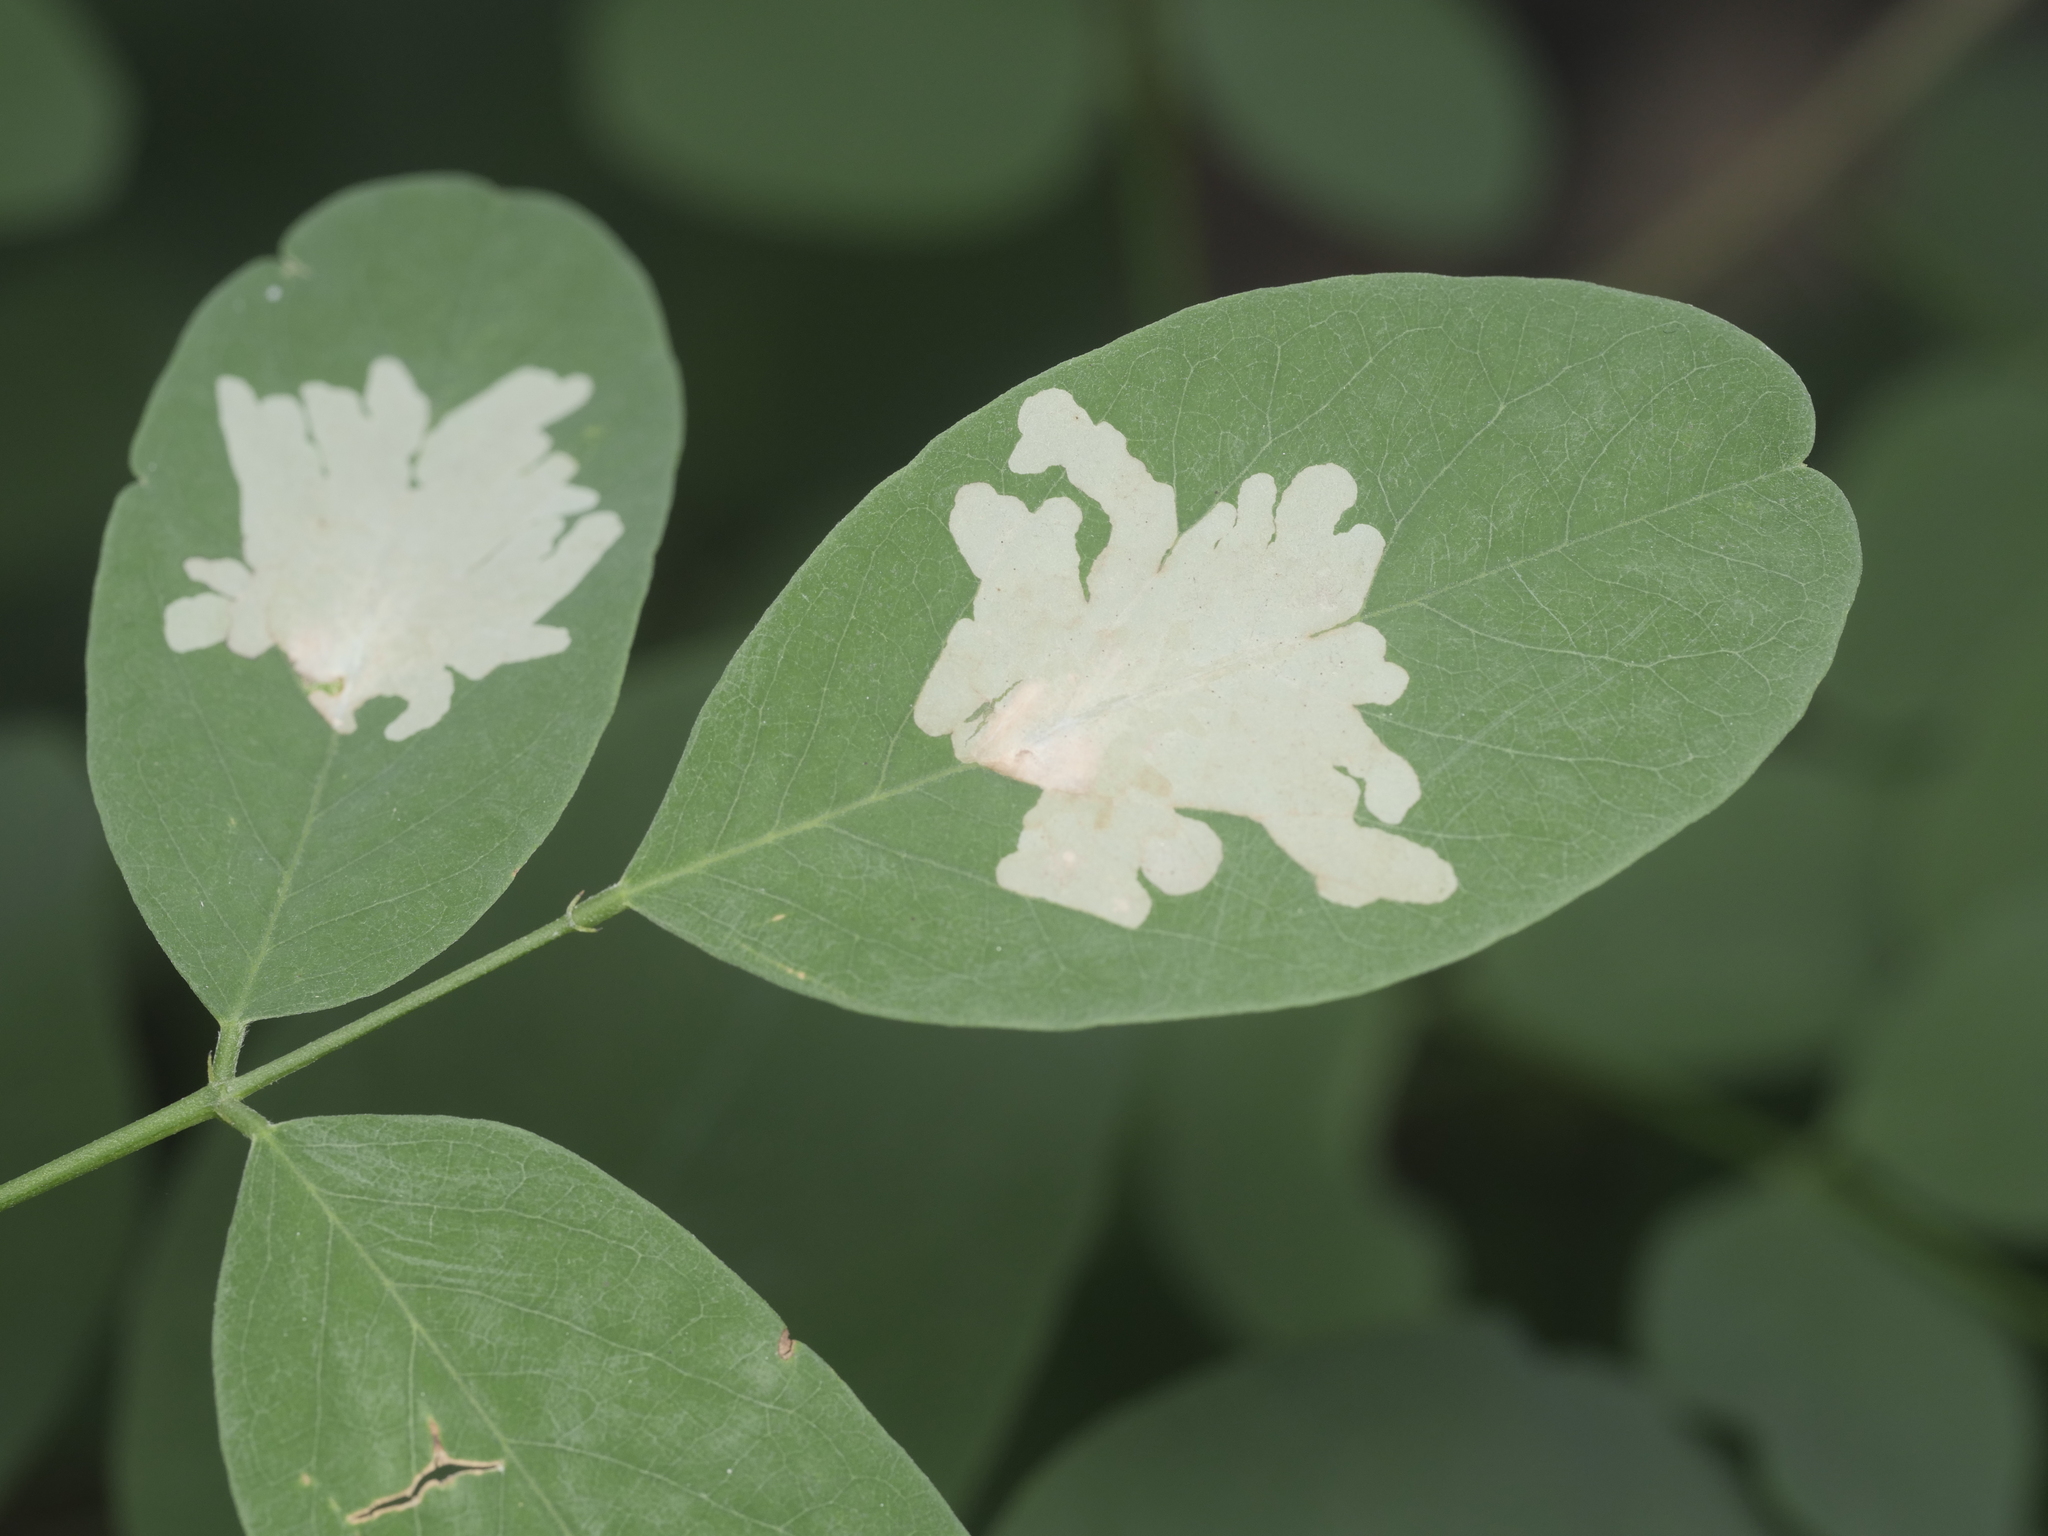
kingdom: Animalia
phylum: Arthropoda
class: Insecta
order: Lepidoptera
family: Gracillariidae
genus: Parectopa
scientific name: Parectopa robiniella
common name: Locust digitate leafminer
